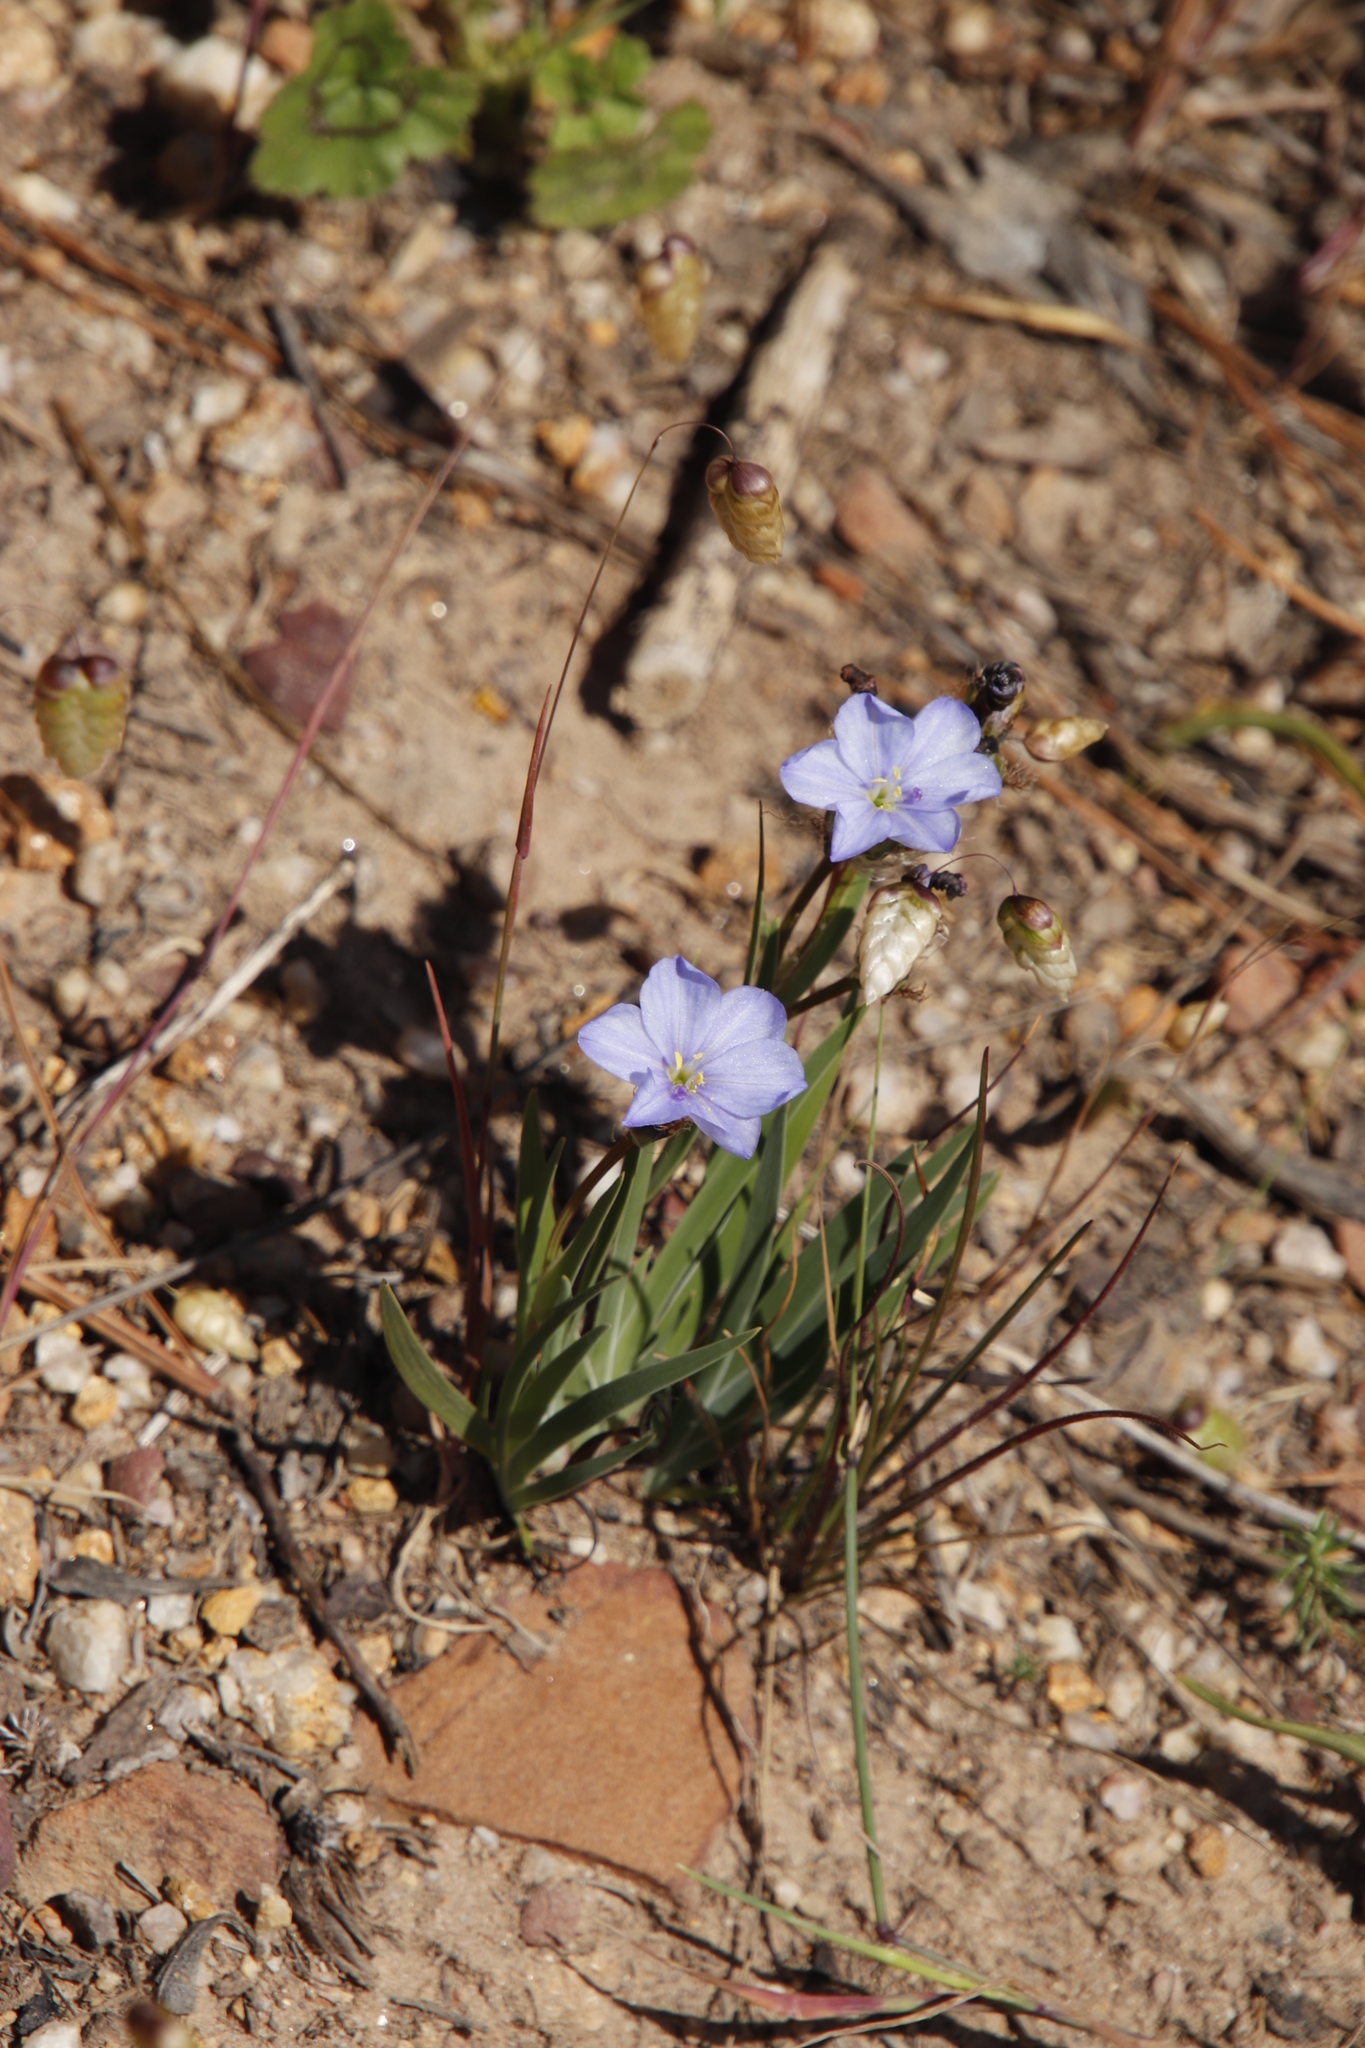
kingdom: Plantae
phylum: Tracheophyta
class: Liliopsida
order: Asparagales
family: Iridaceae
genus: Aristea
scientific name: Aristea africana
